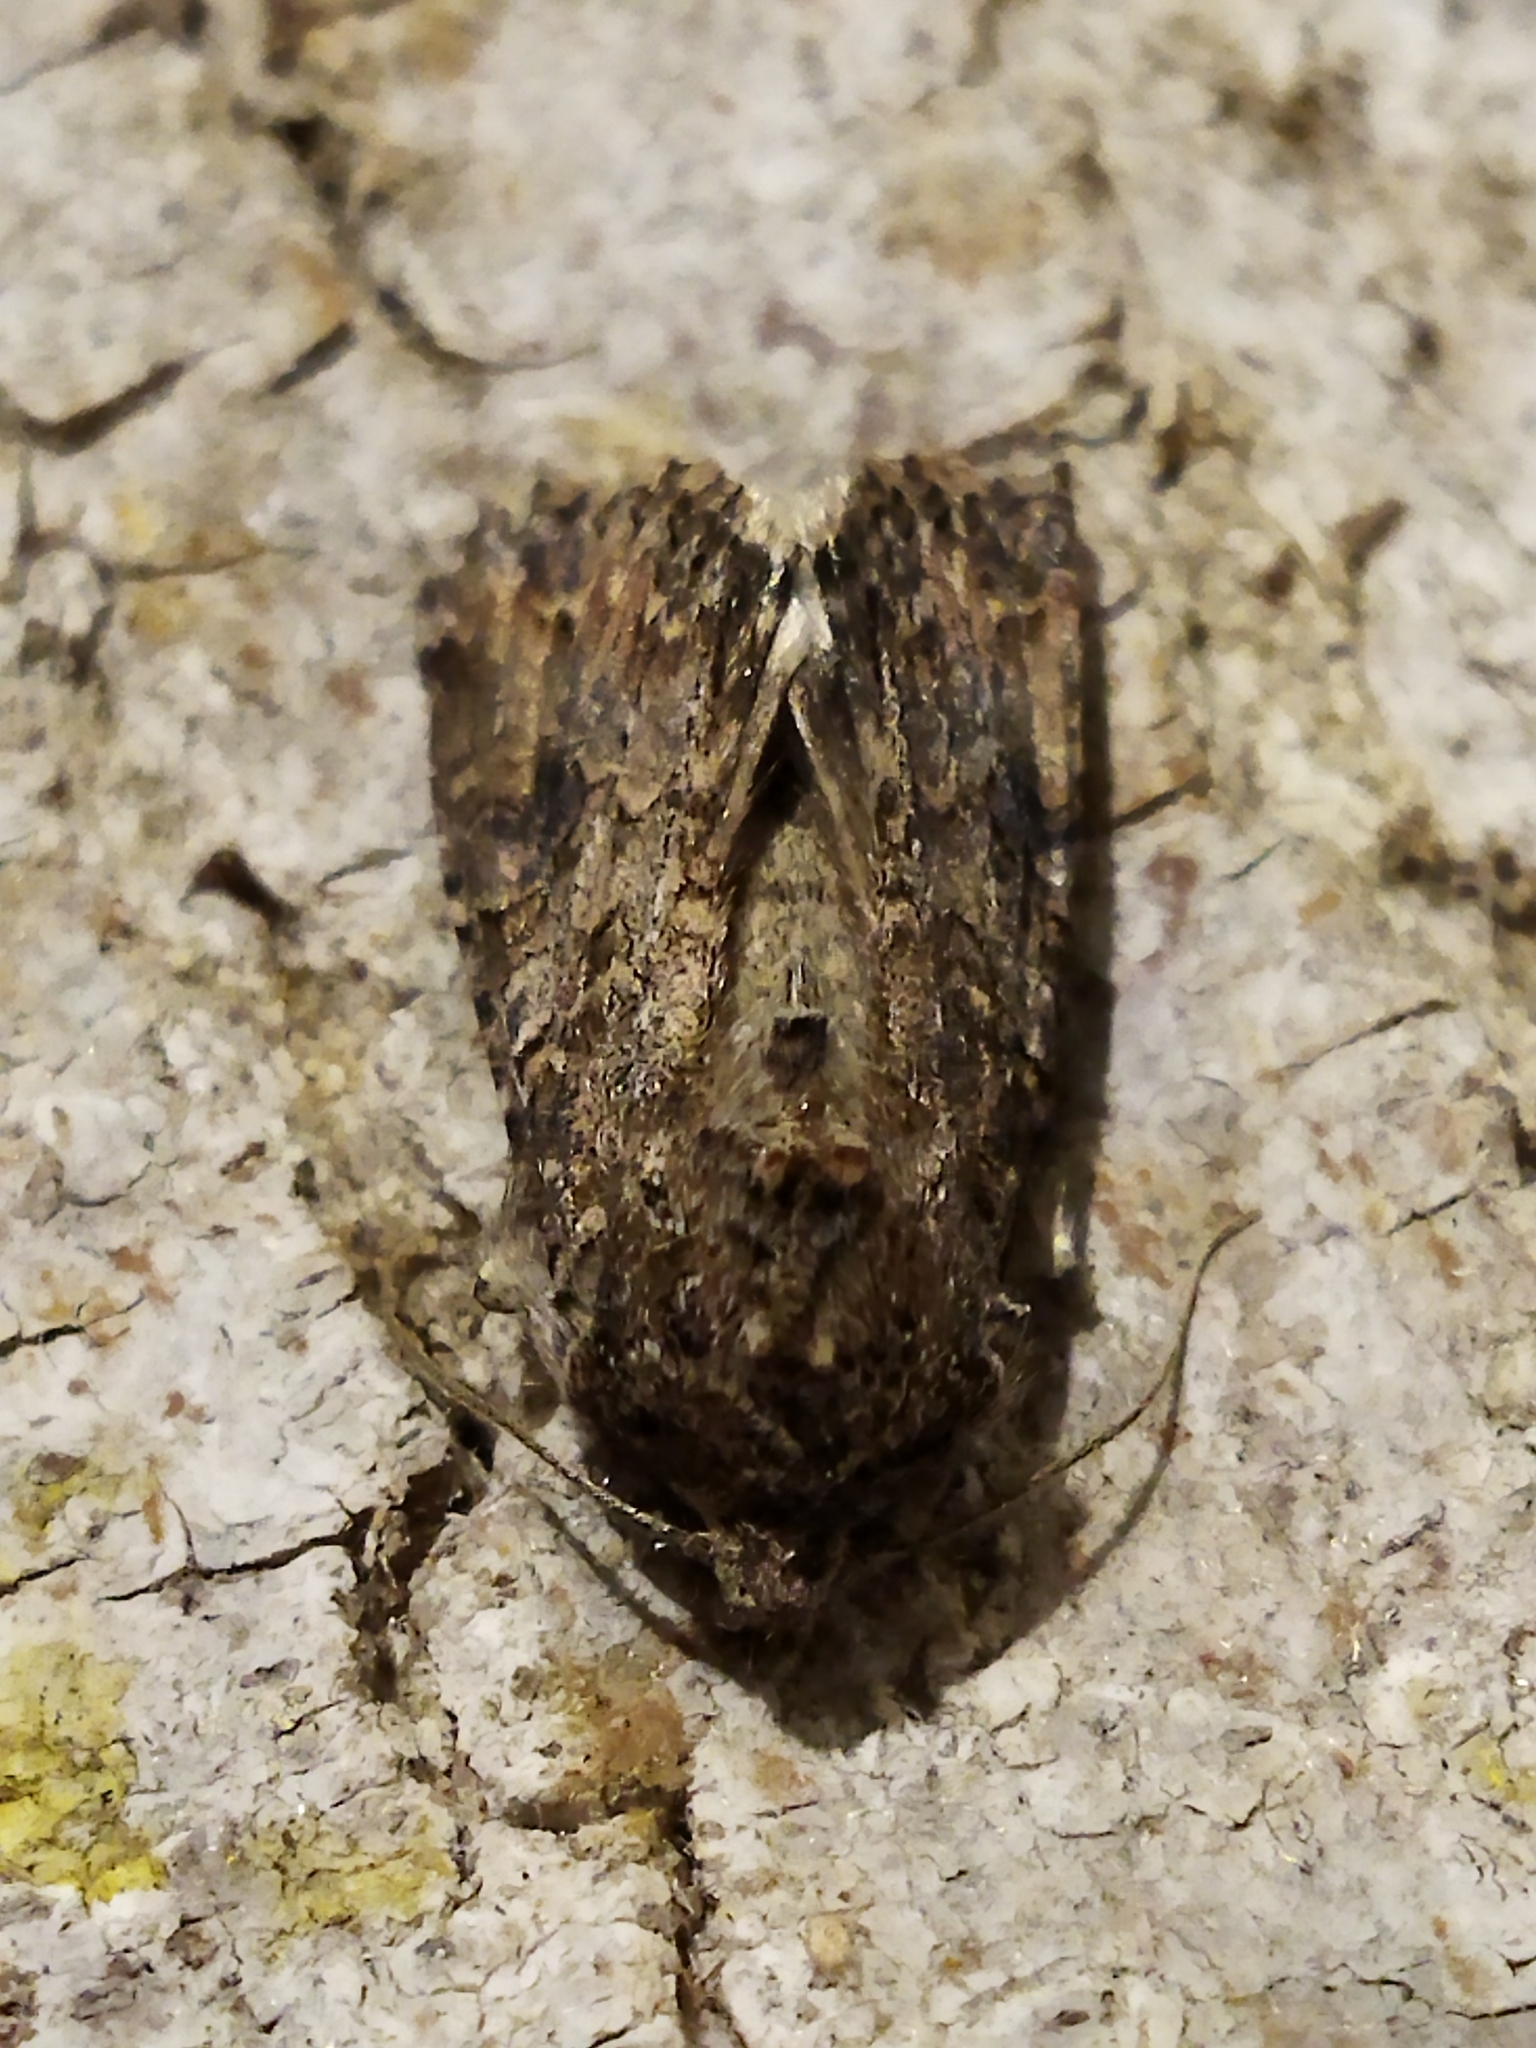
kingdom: Animalia
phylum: Arthropoda
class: Insecta
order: Lepidoptera
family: Noctuidae
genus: Anarta
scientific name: Anarta
